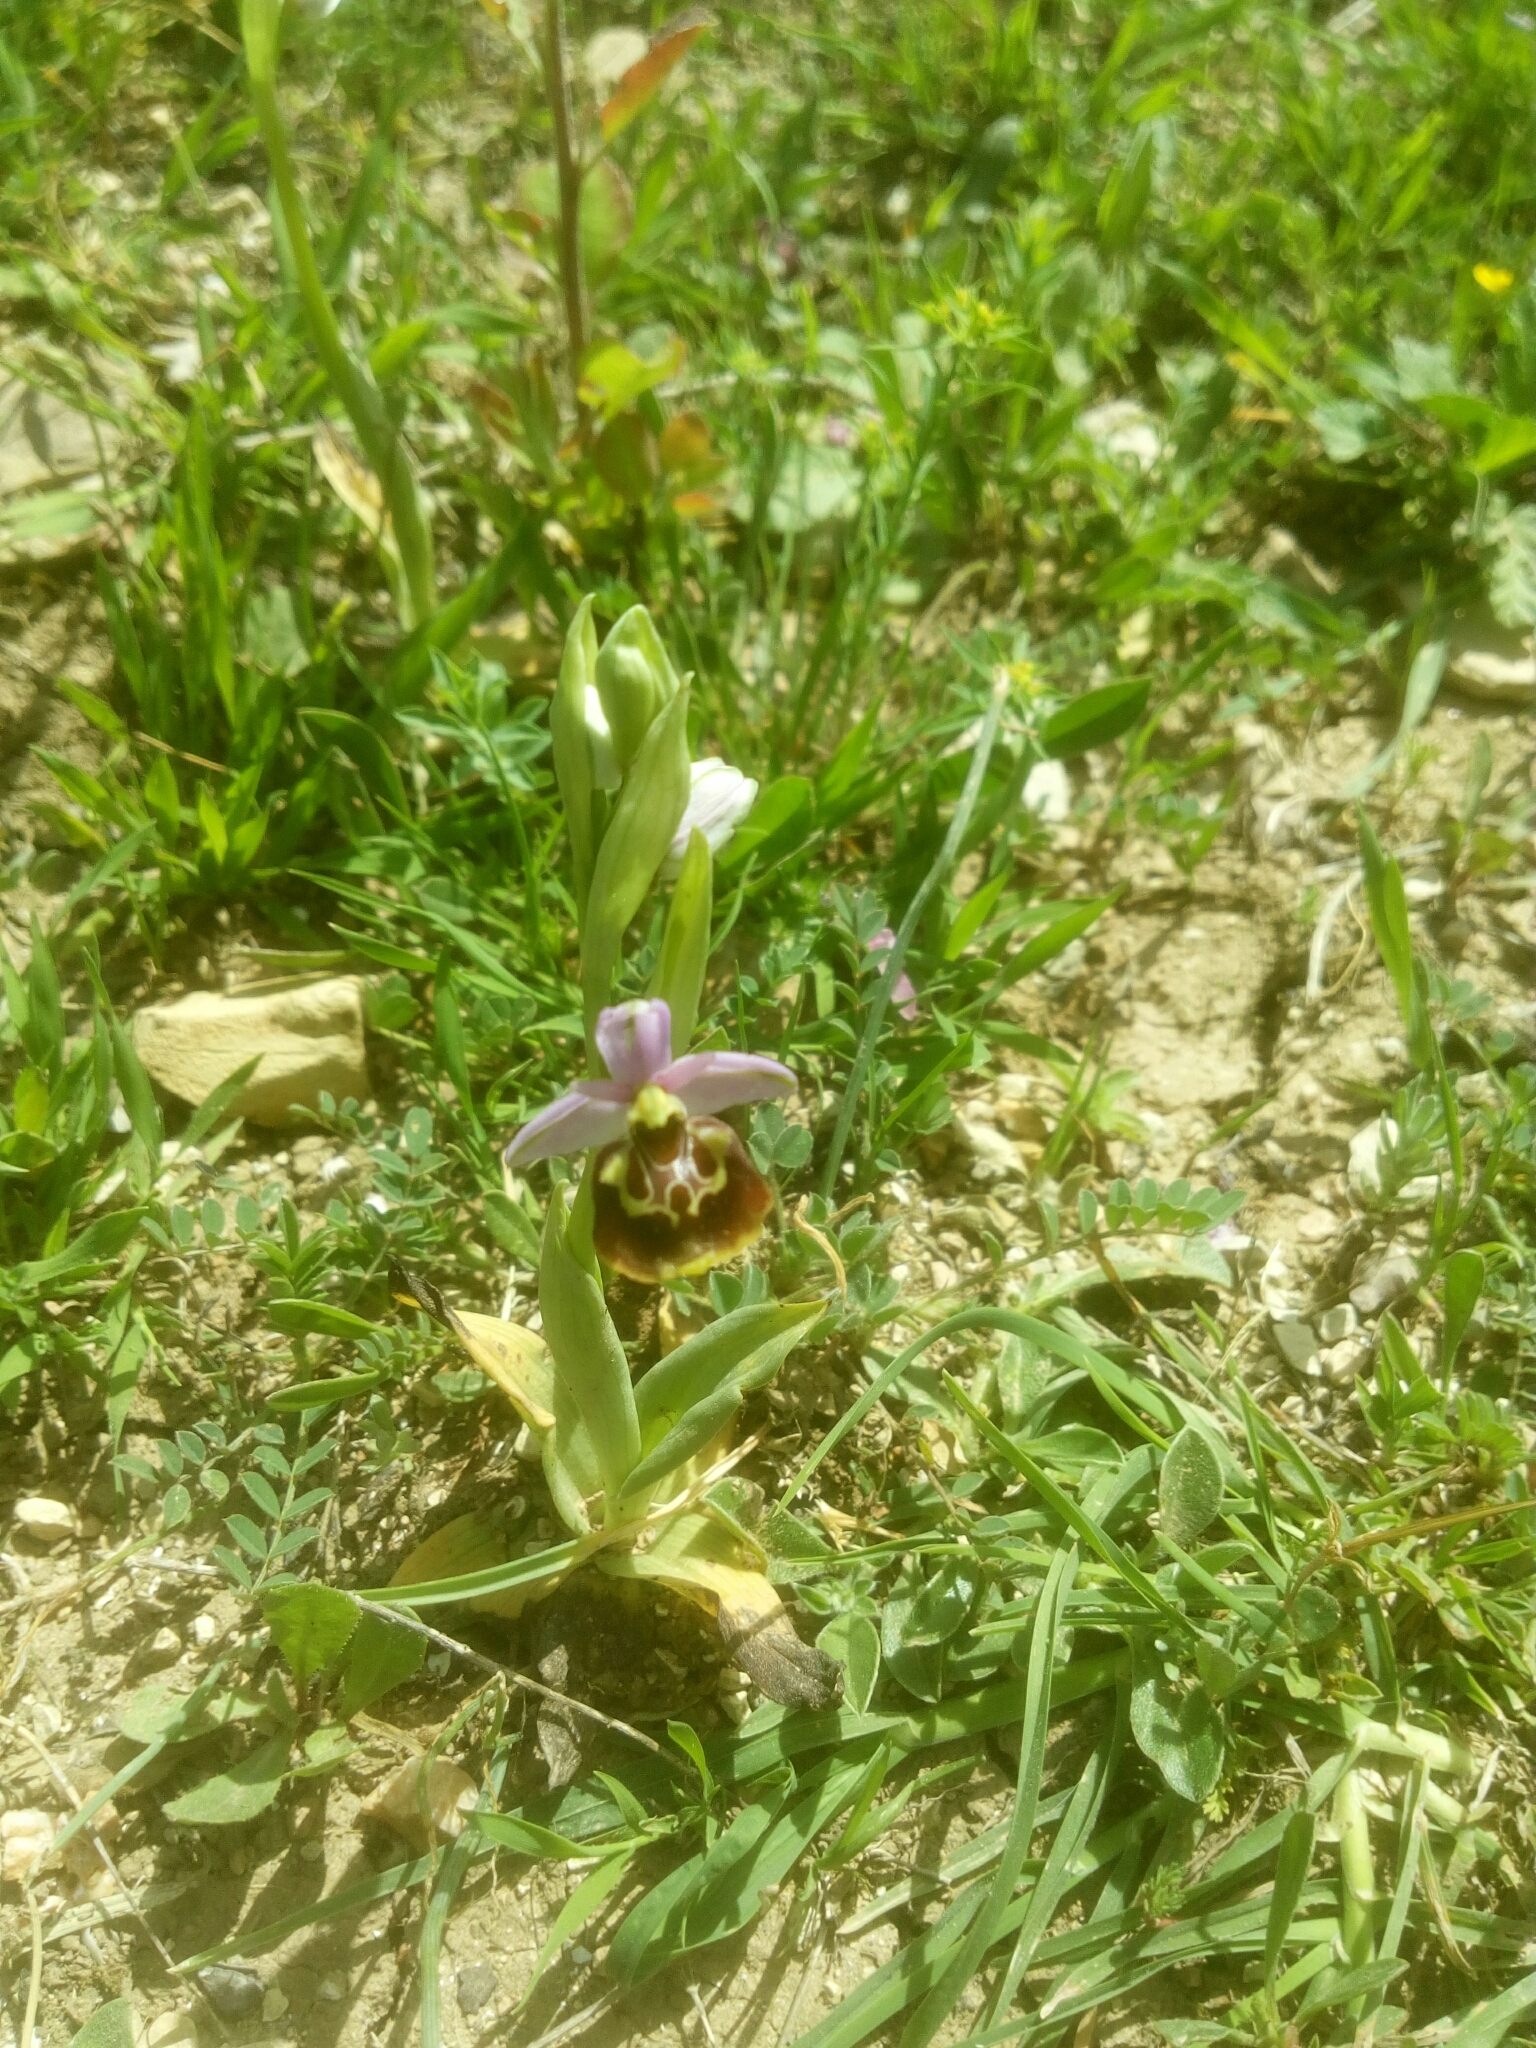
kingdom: Plantae
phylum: Tracheophyta
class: Liliopsida
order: Asparagales
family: Orchidaceae
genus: Ophrys
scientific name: Ophrys holosericea
